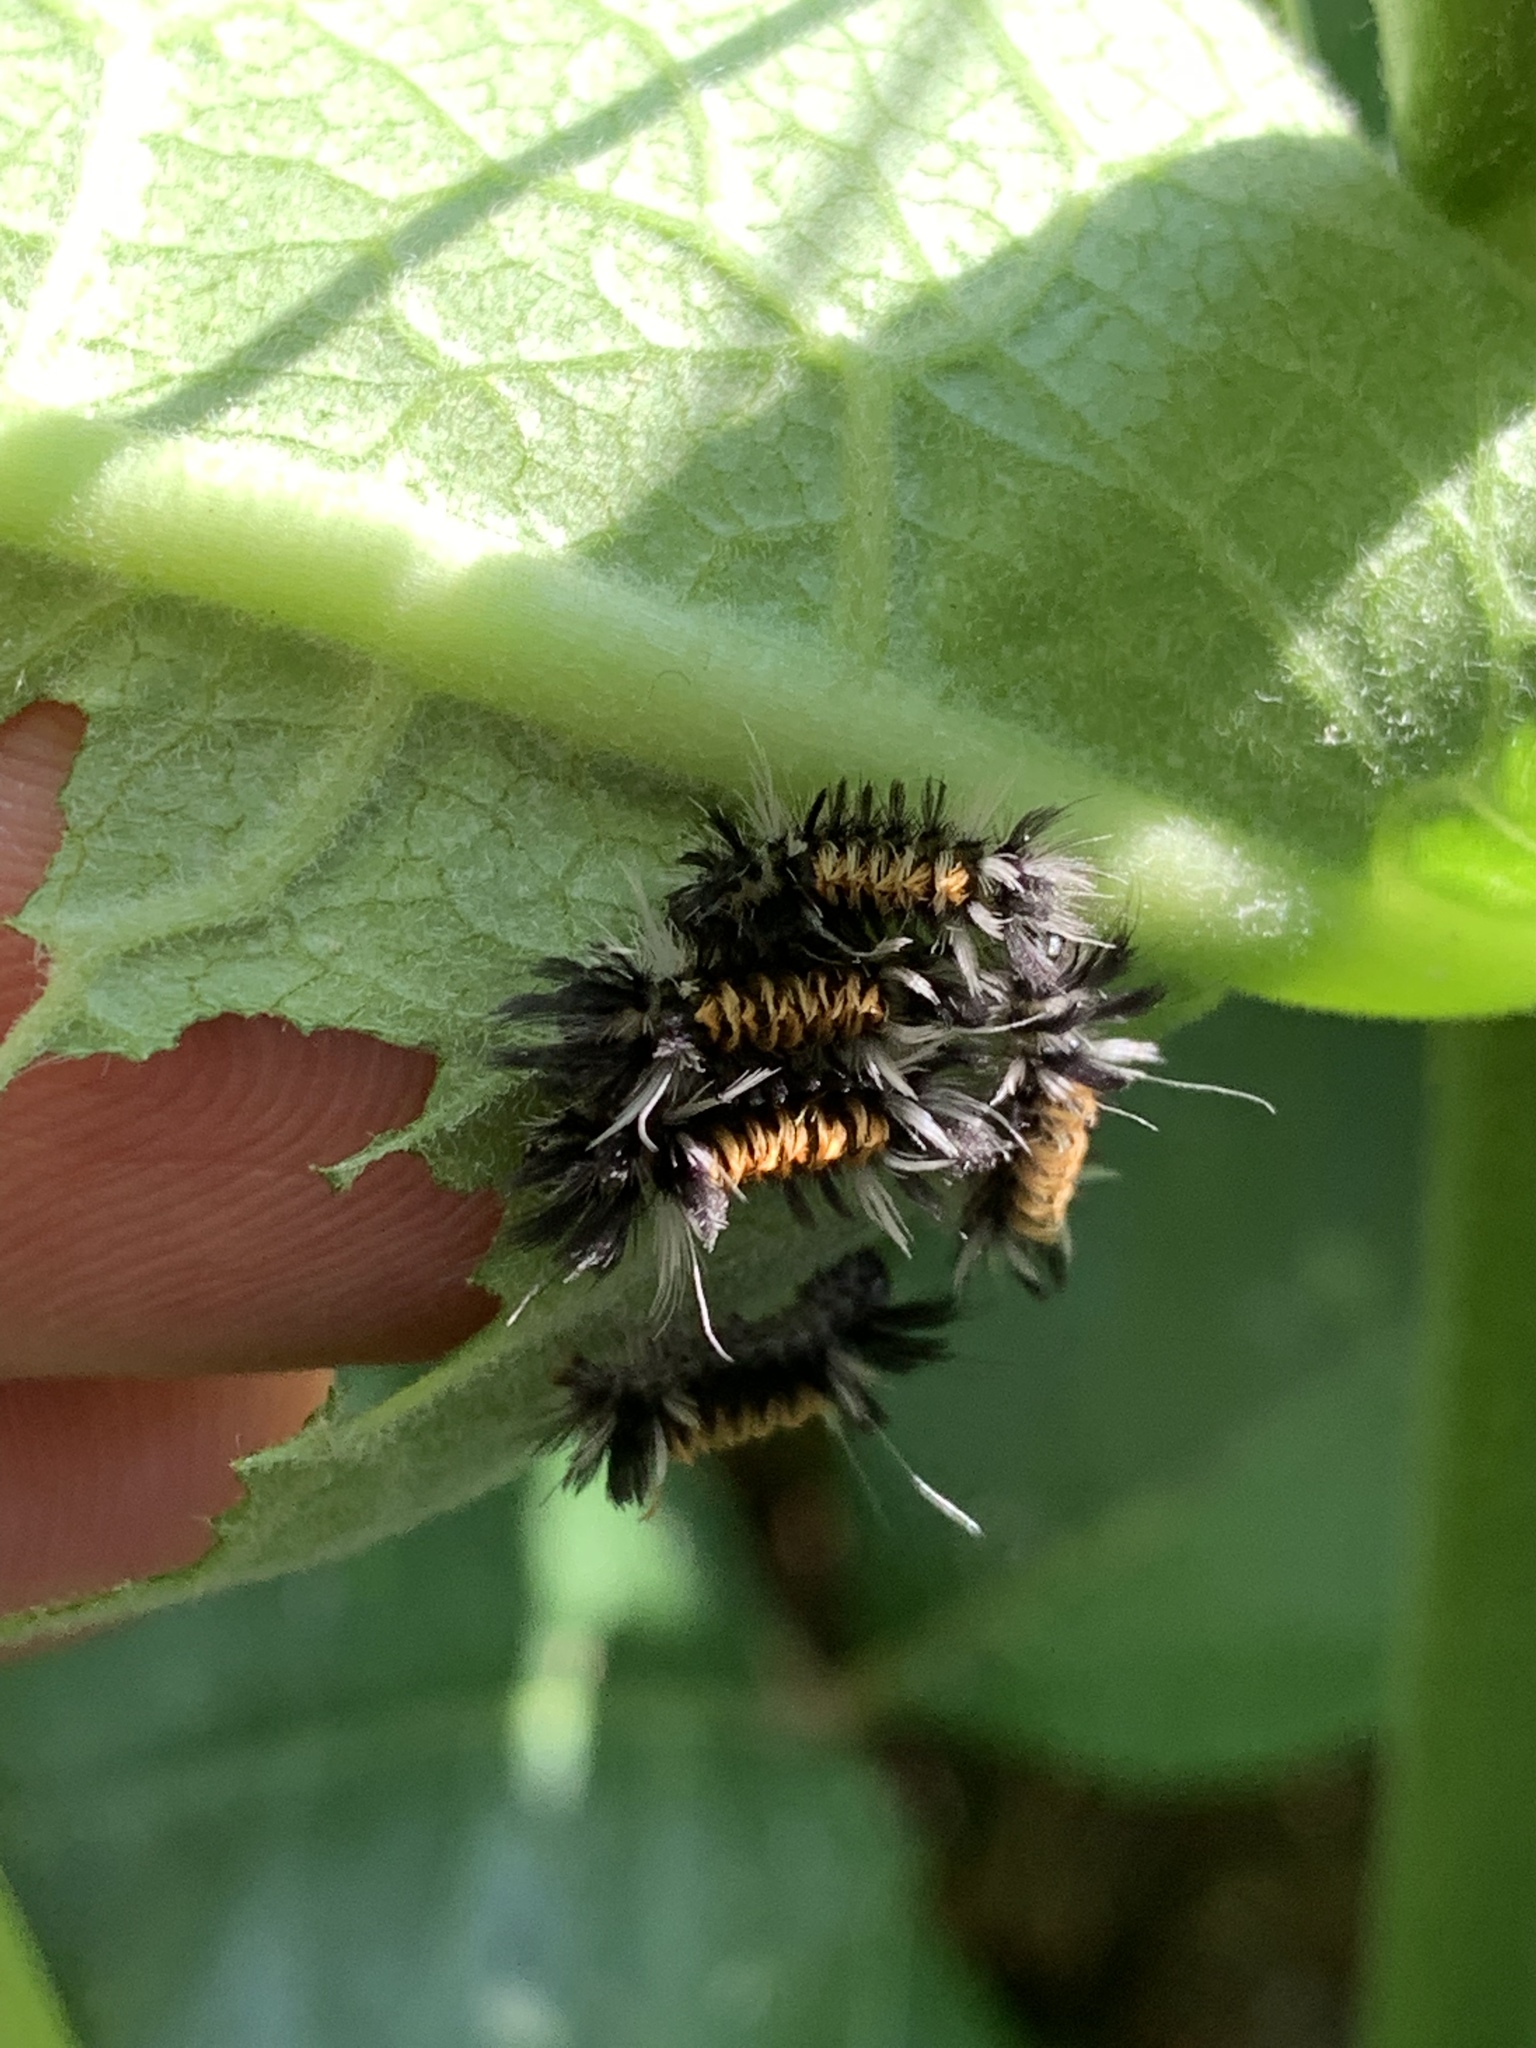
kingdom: Animalia
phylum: Arthropoda
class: Insecta
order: Lepidoptera
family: Erebidae
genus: Euchaetes
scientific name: Euchaetes egle
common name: Milkweed tussock moth
